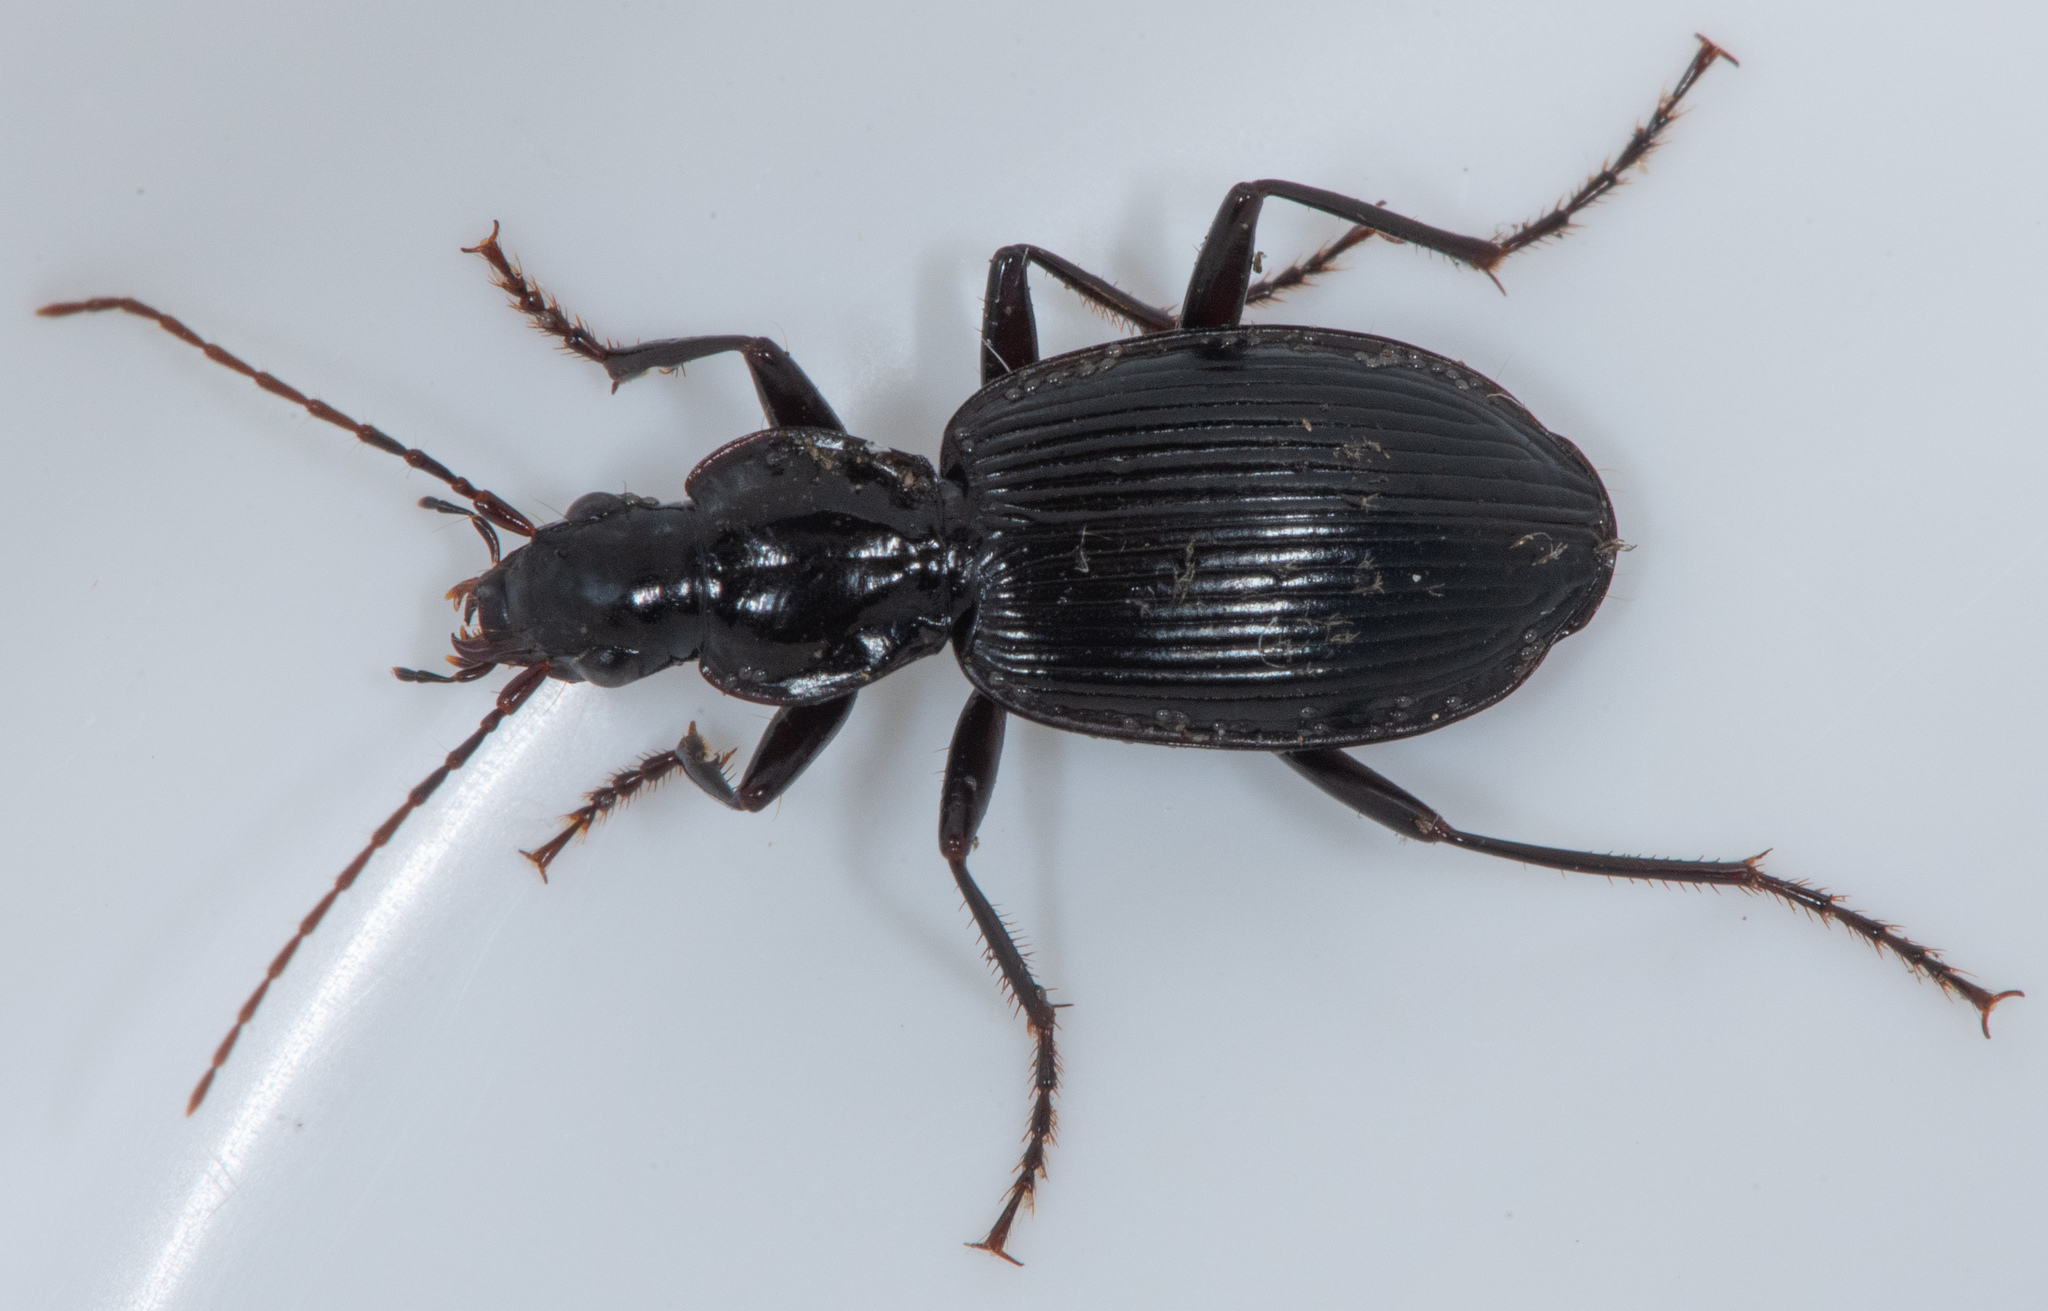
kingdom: Animalia
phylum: Arthropoda
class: Insecta
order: Coleoptera
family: Carabidae
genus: Platynus
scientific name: Platynus ovipennis
